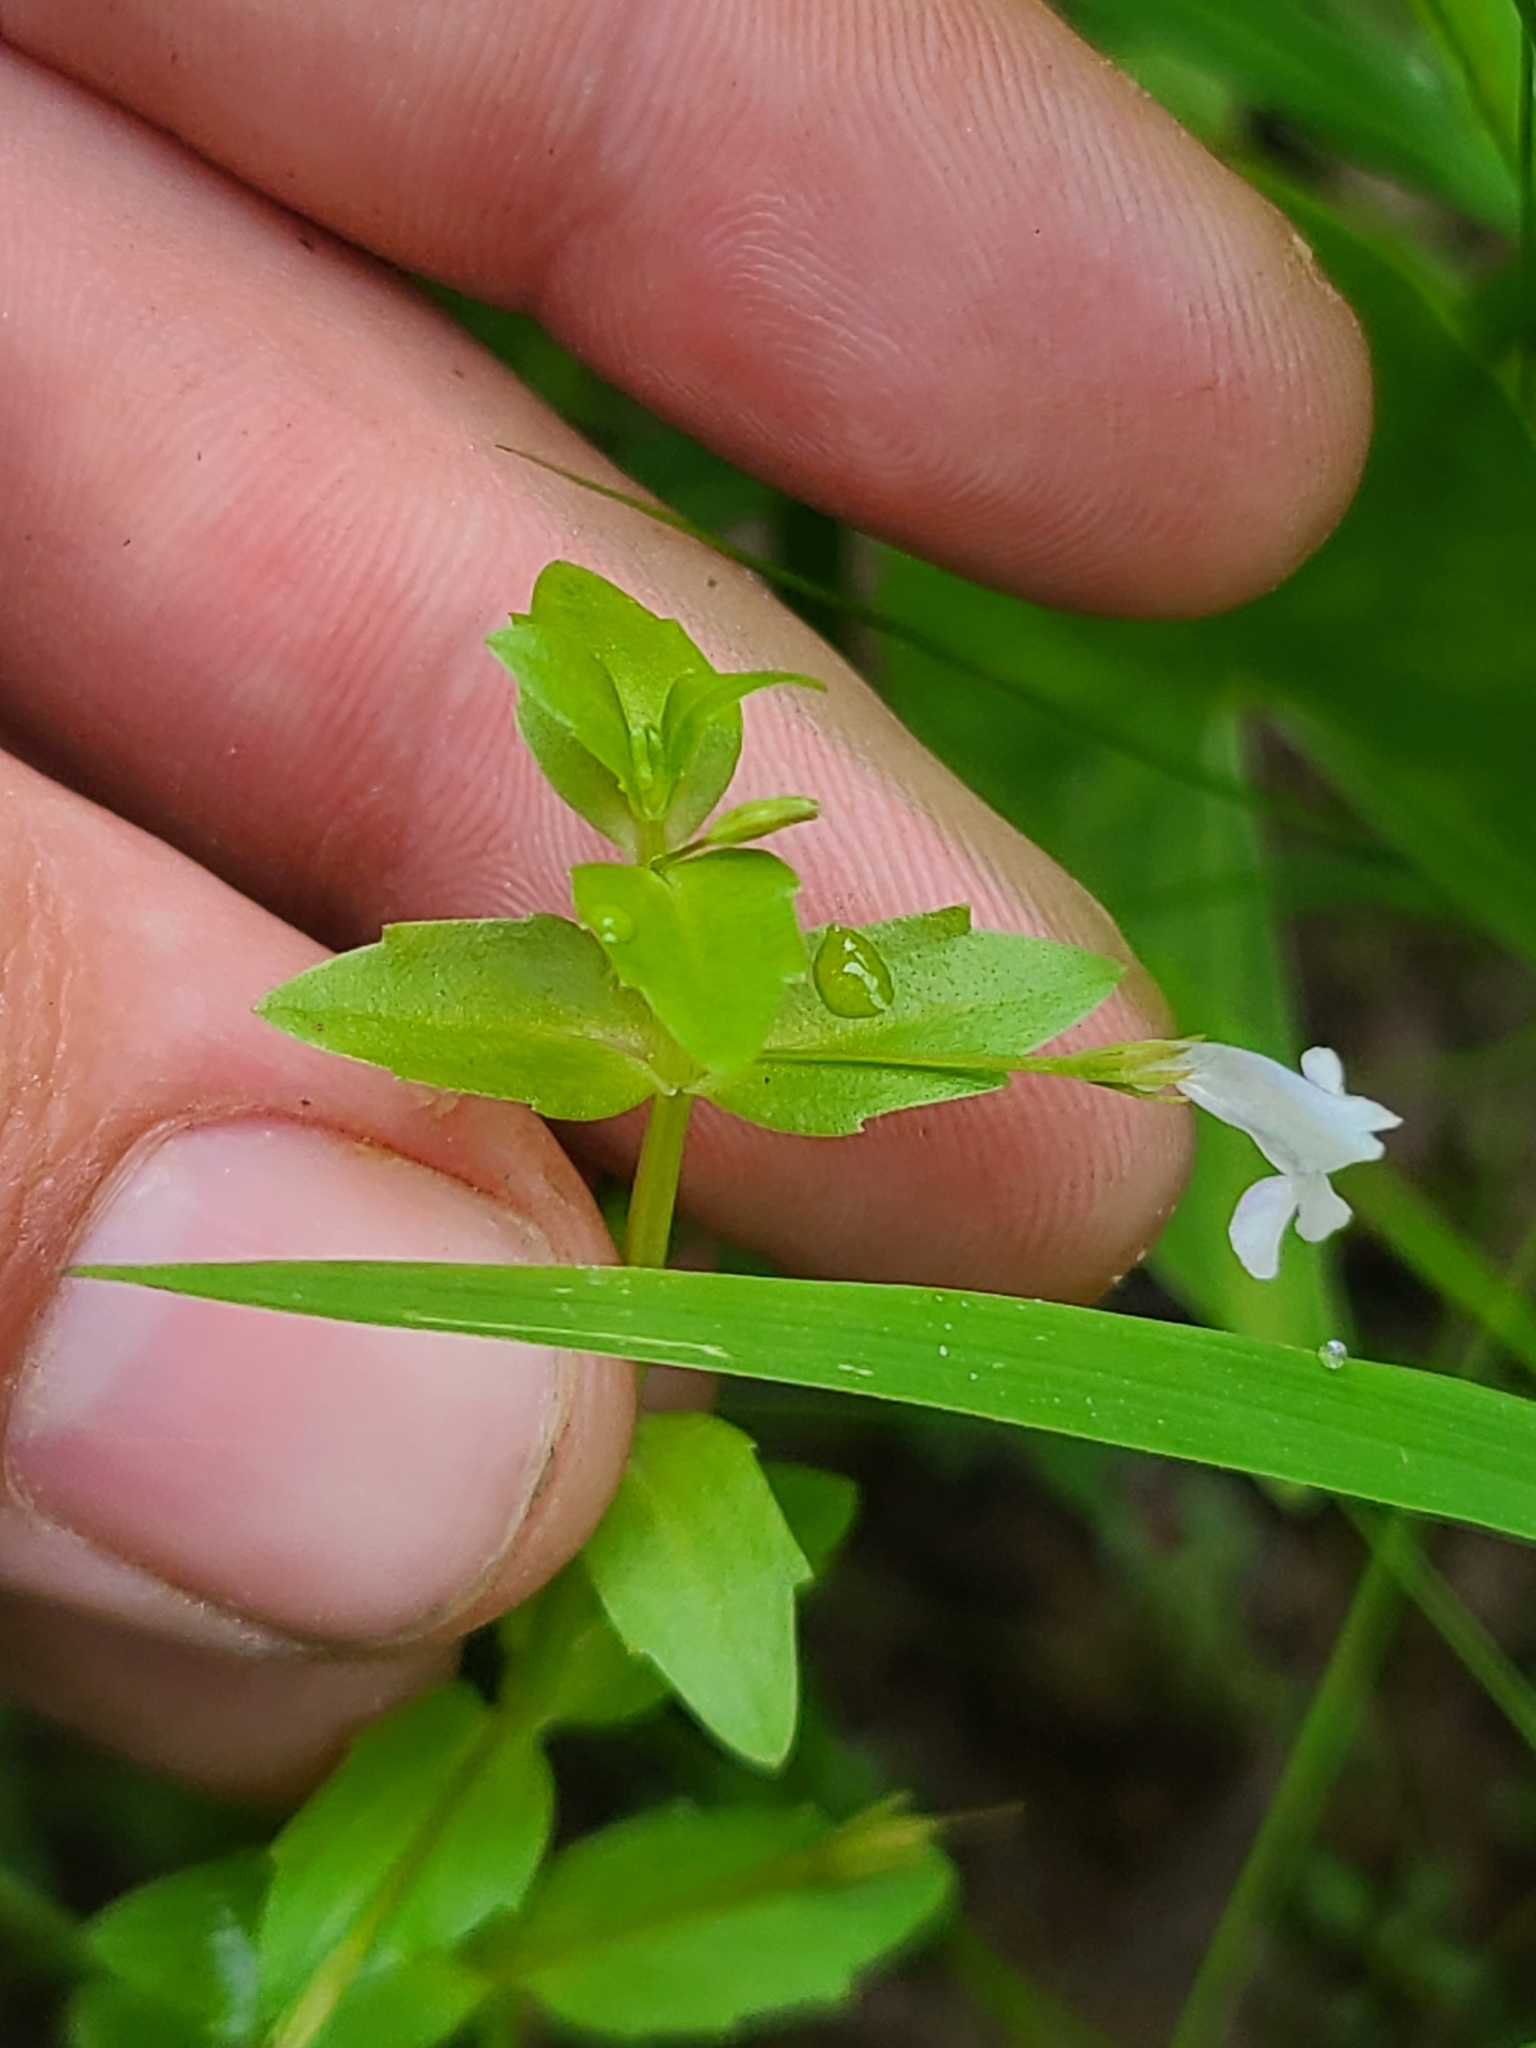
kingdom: Plantae
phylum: Tracheophyta
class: Magnoliopsida
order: Lamiales
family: Linderniaceae
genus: Lindernia
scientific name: Lindernia dubia
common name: Annual false pimpernel
